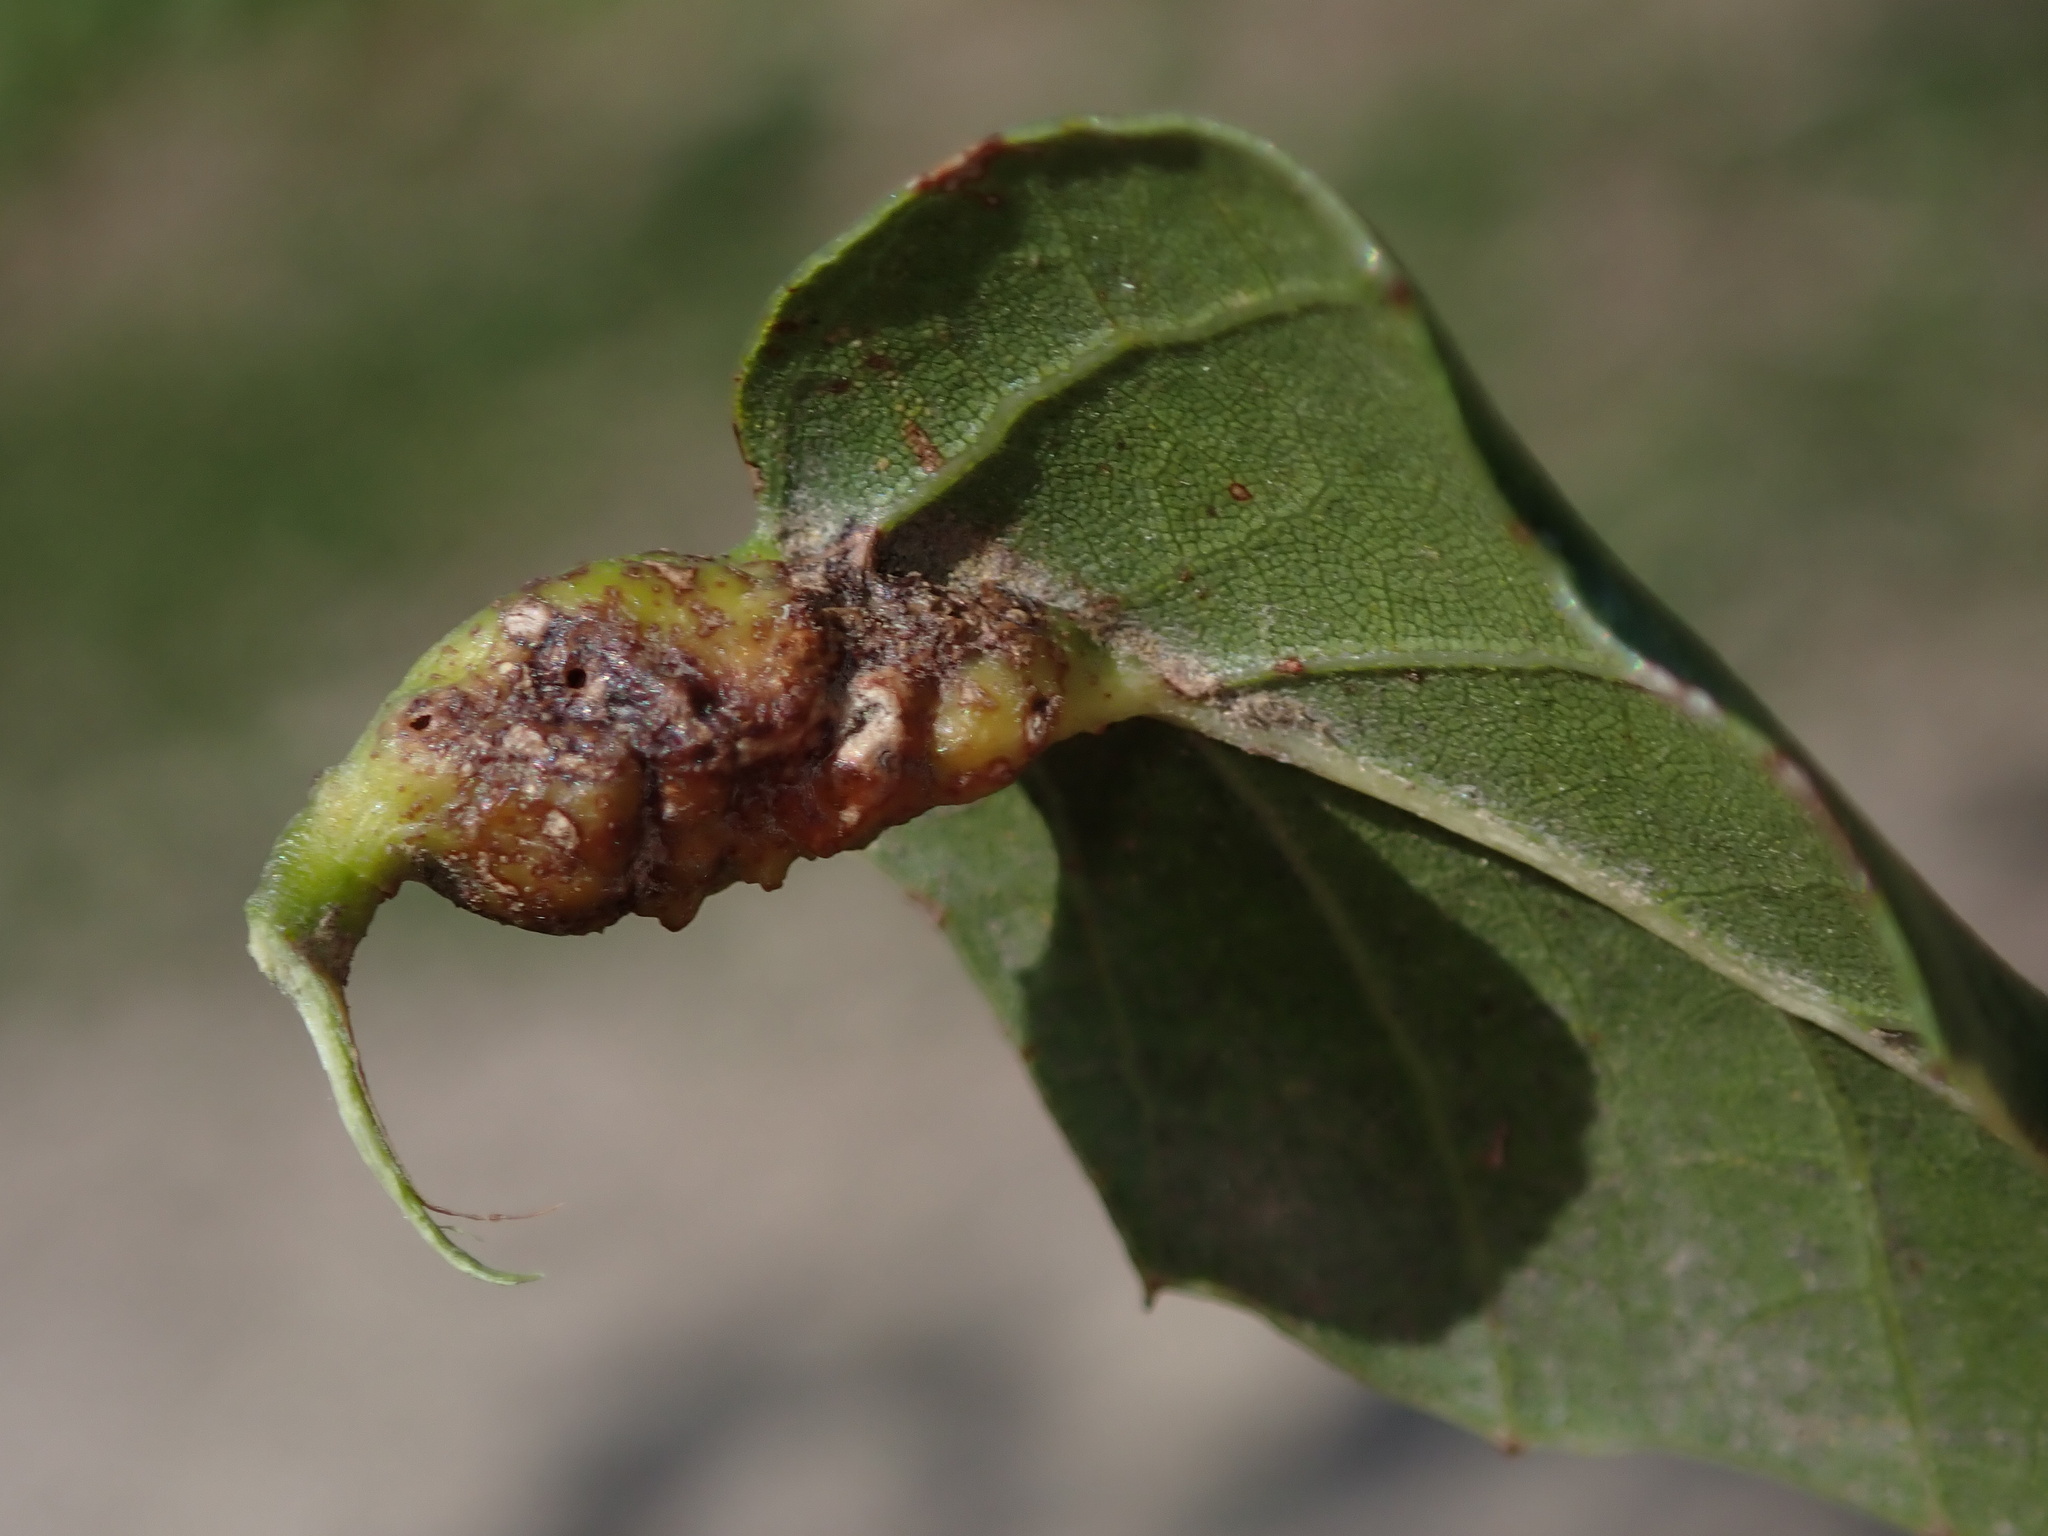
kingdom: Animalia
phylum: Arthropoda
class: Insecta
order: Hymenoptera
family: Cynipidae
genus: Melikaiella
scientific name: Melikaiella
